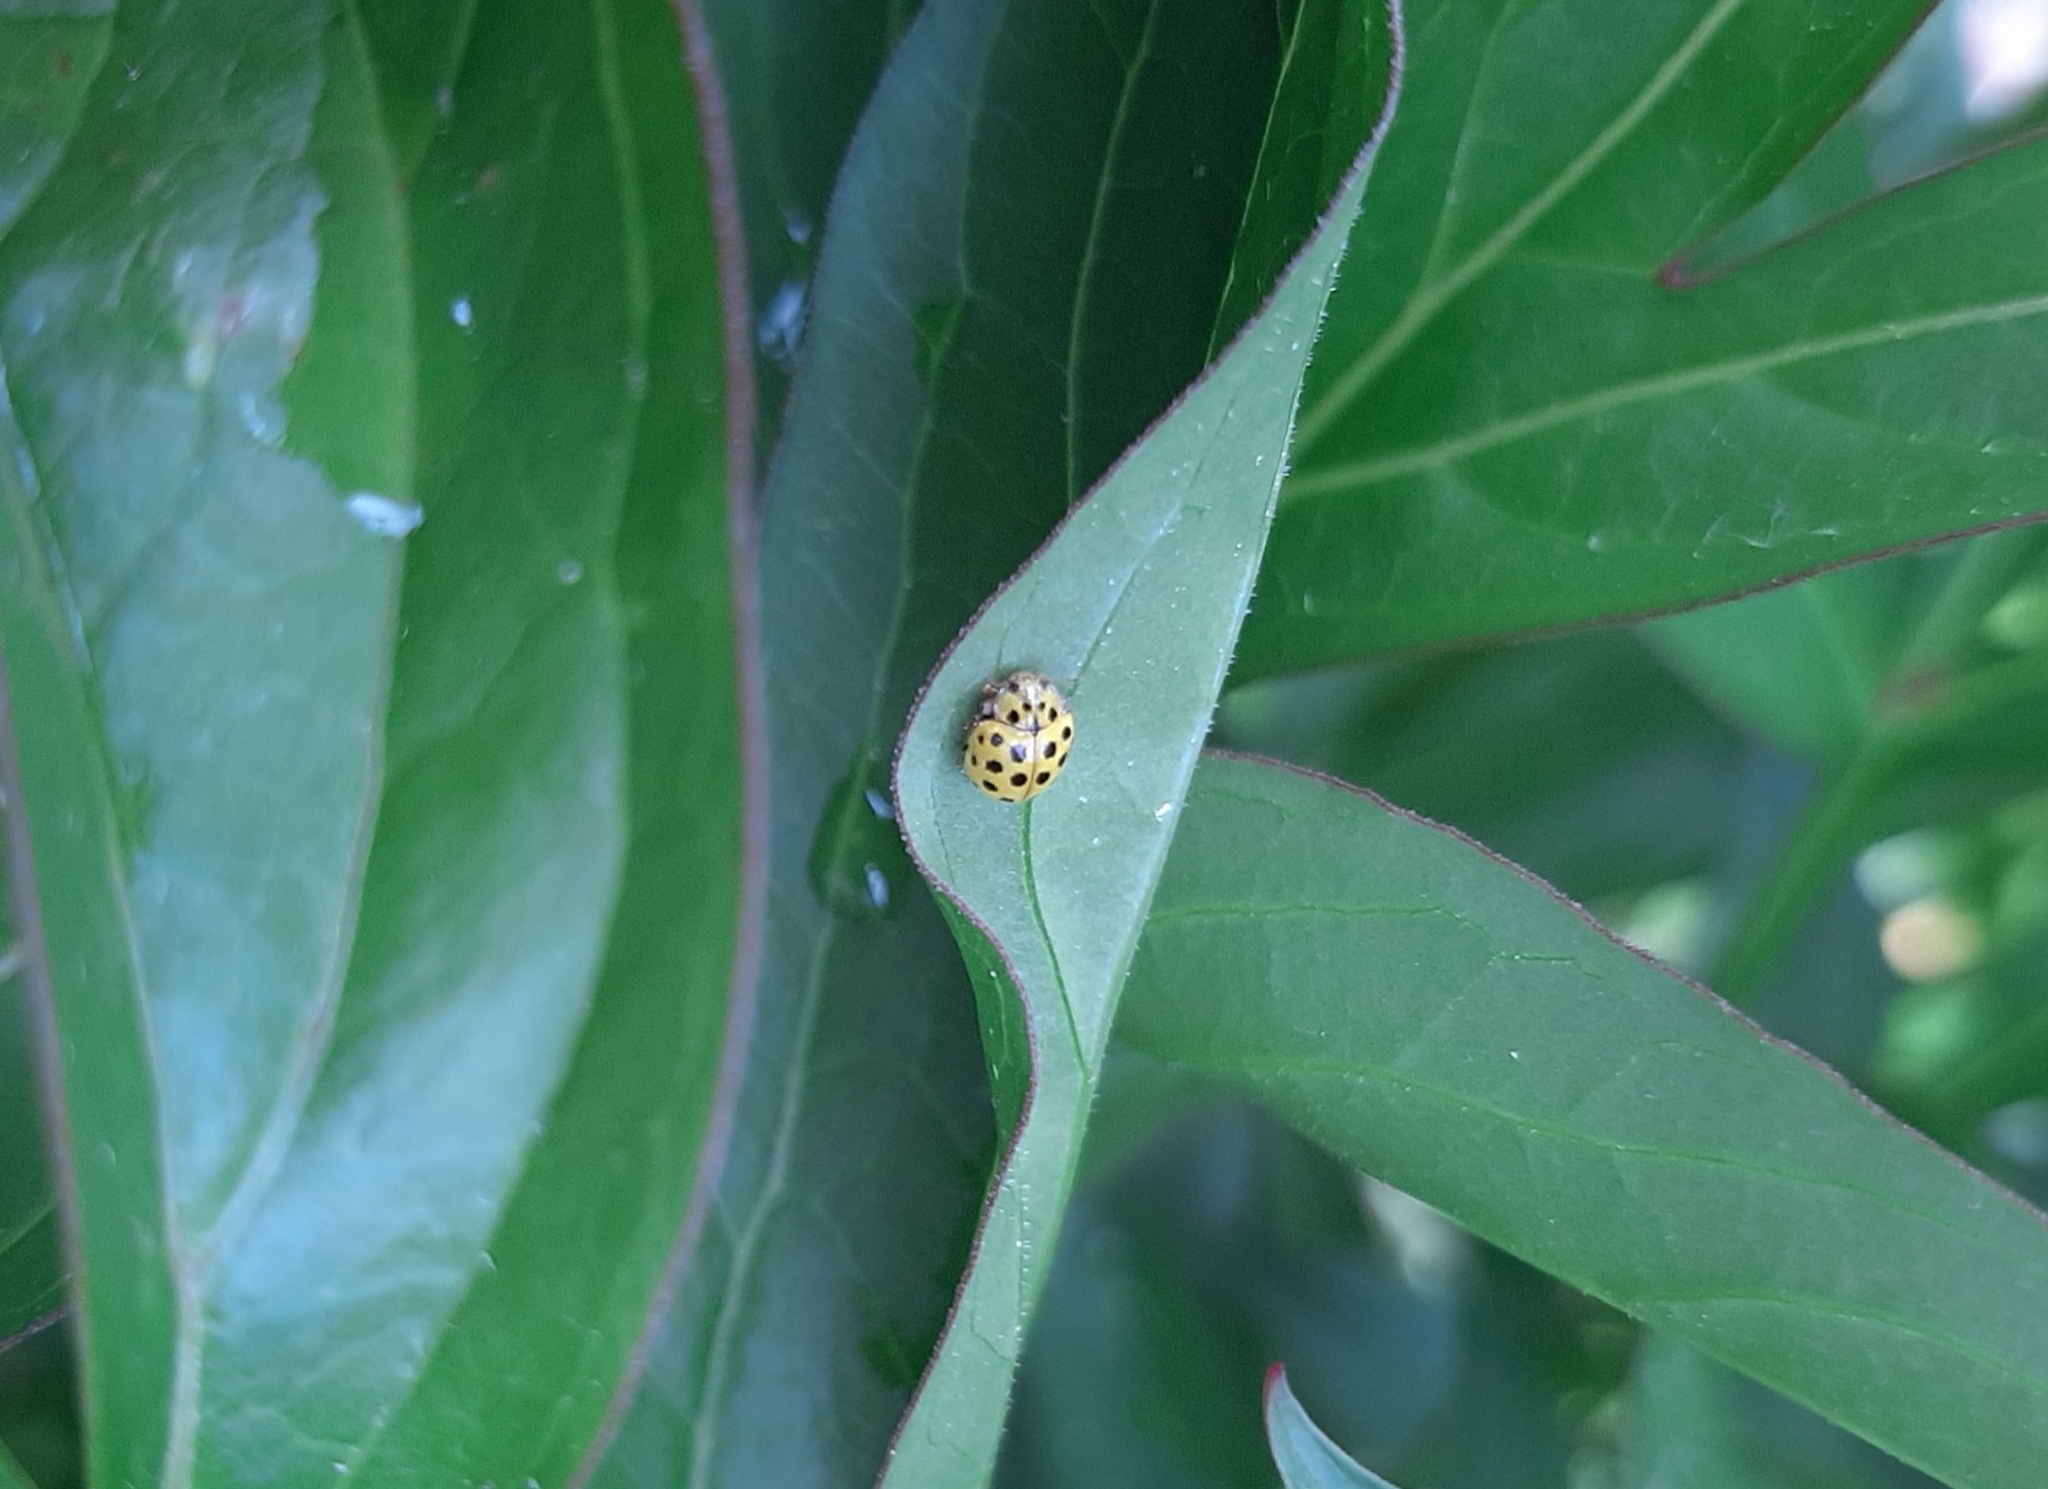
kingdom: Animalia
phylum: Arthropoda
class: Insecta
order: Coleoptera
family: Coccinellidae
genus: Psyllobora
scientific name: Psyllobora vigintiduopunctata
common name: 22-spot ladybird
